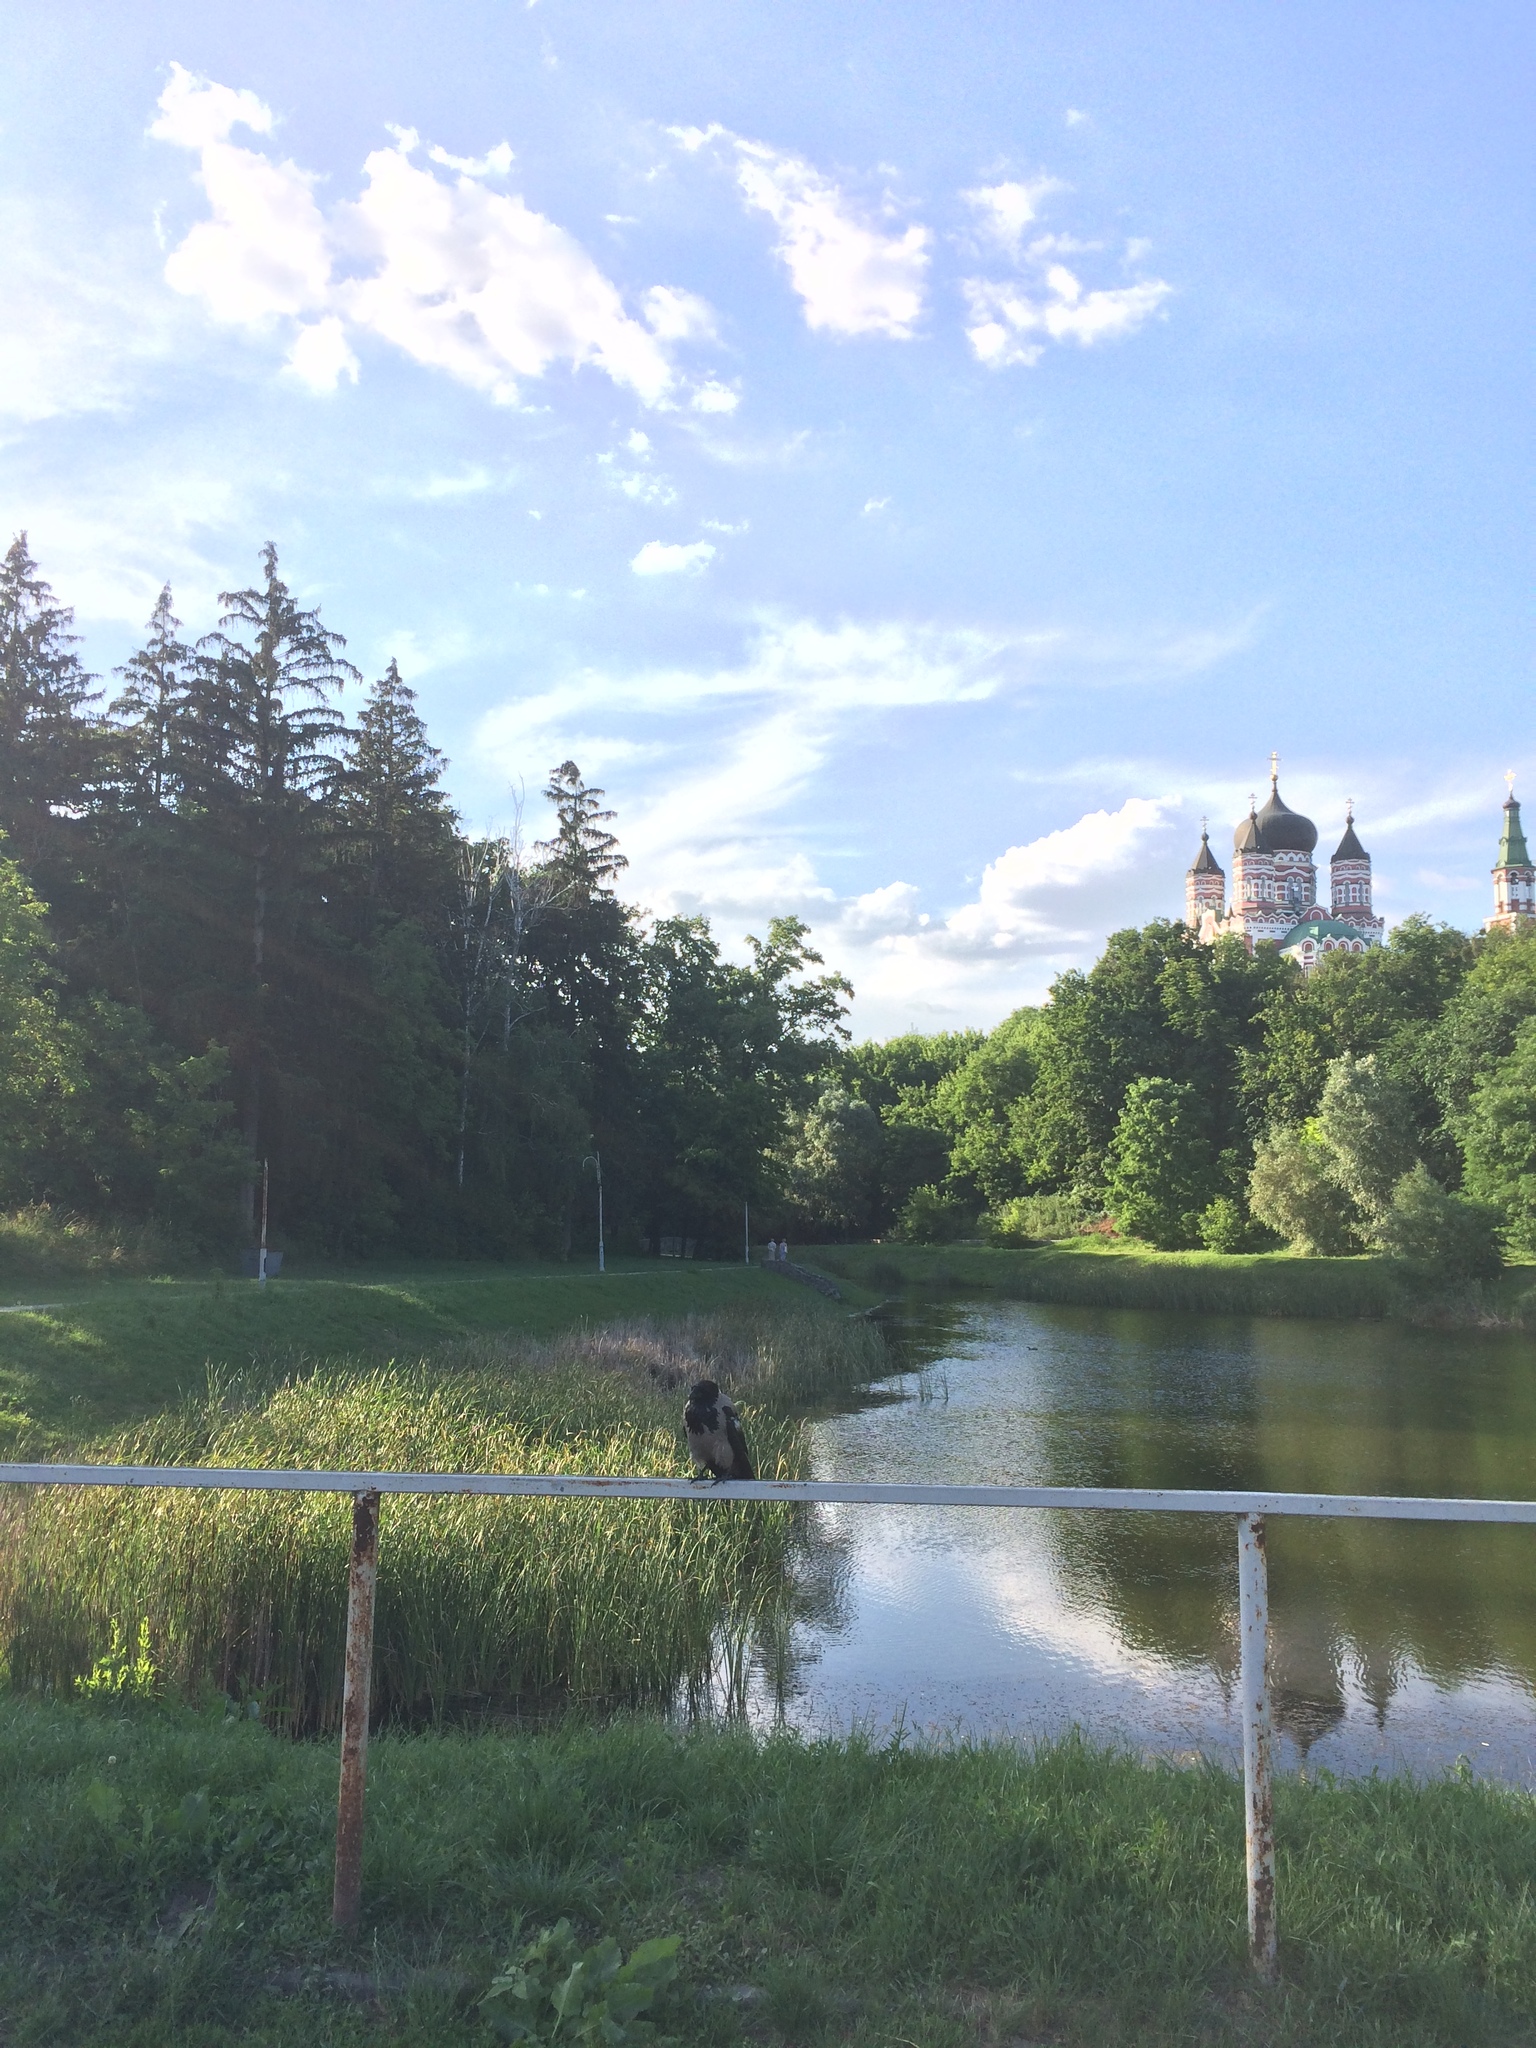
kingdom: Animalia
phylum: Chordata
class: Aves
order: Passeriformes
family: Corvidae
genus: Corvus
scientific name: Corvus cornix
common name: Hooded crow
